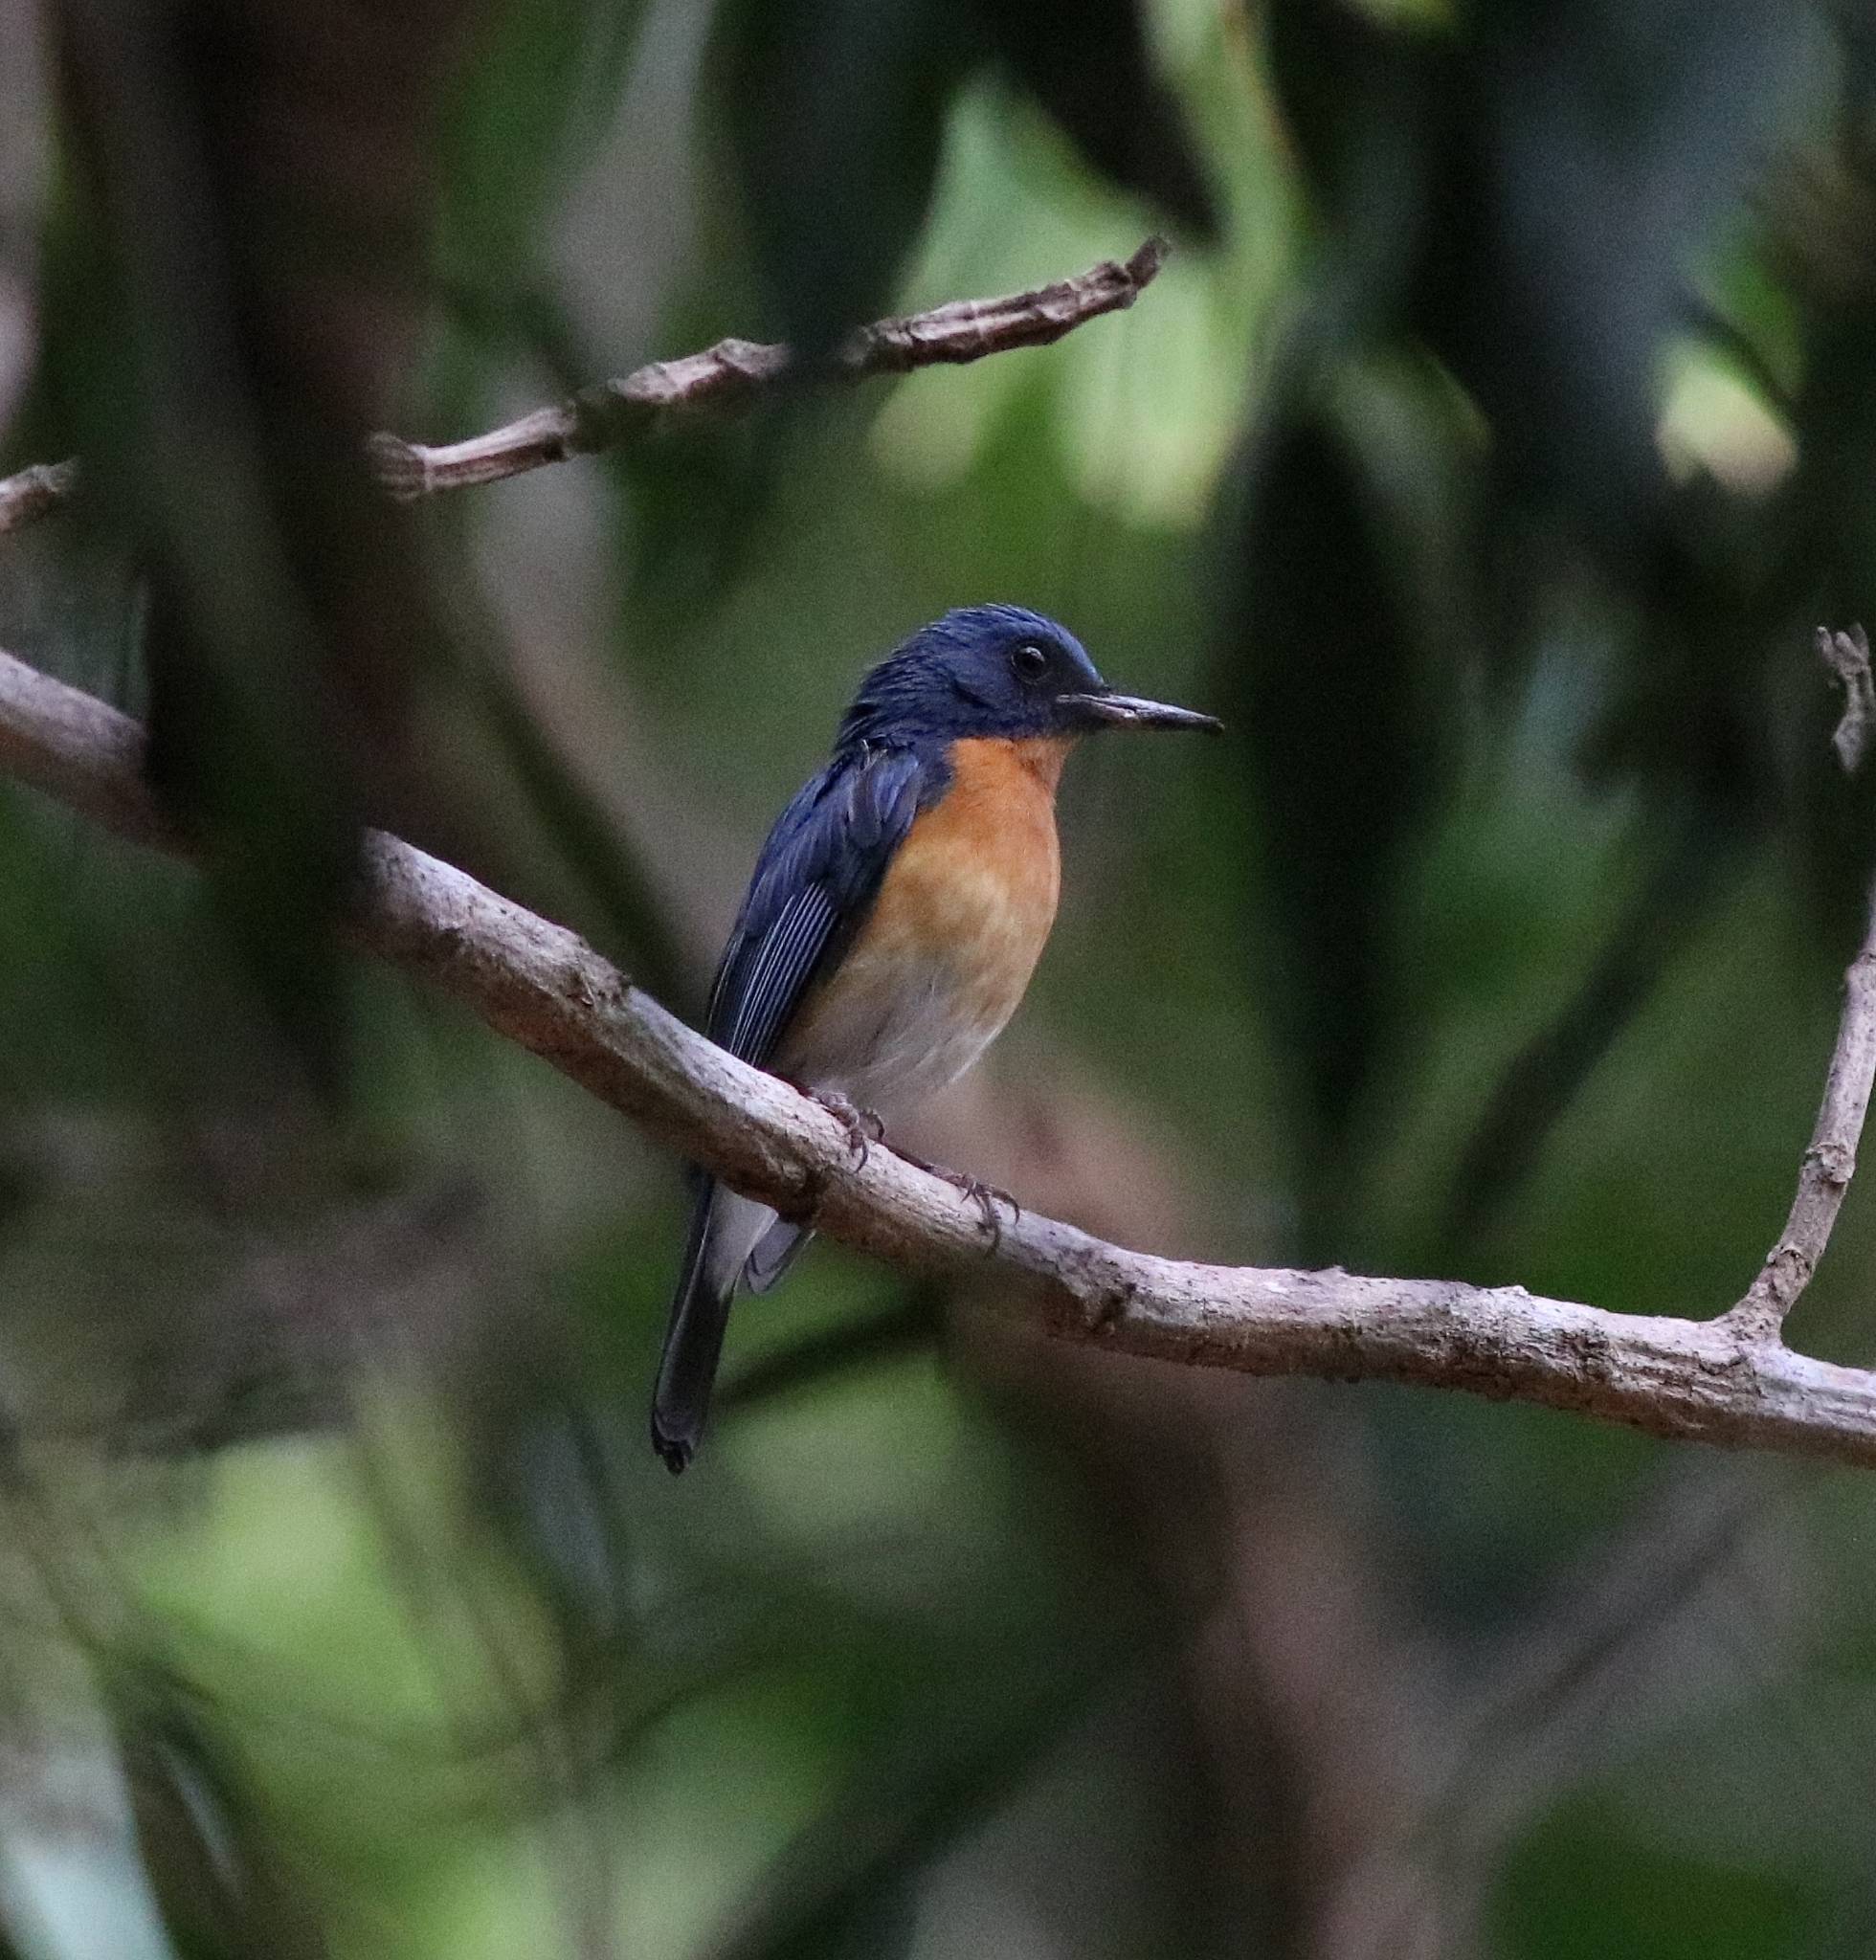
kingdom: Animalia
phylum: Chordata
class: Aves
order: Passeriformes
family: Muscicapidae
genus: Cyornis
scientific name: Cyornis tickelliae
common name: Tickell's blue flycatcher
